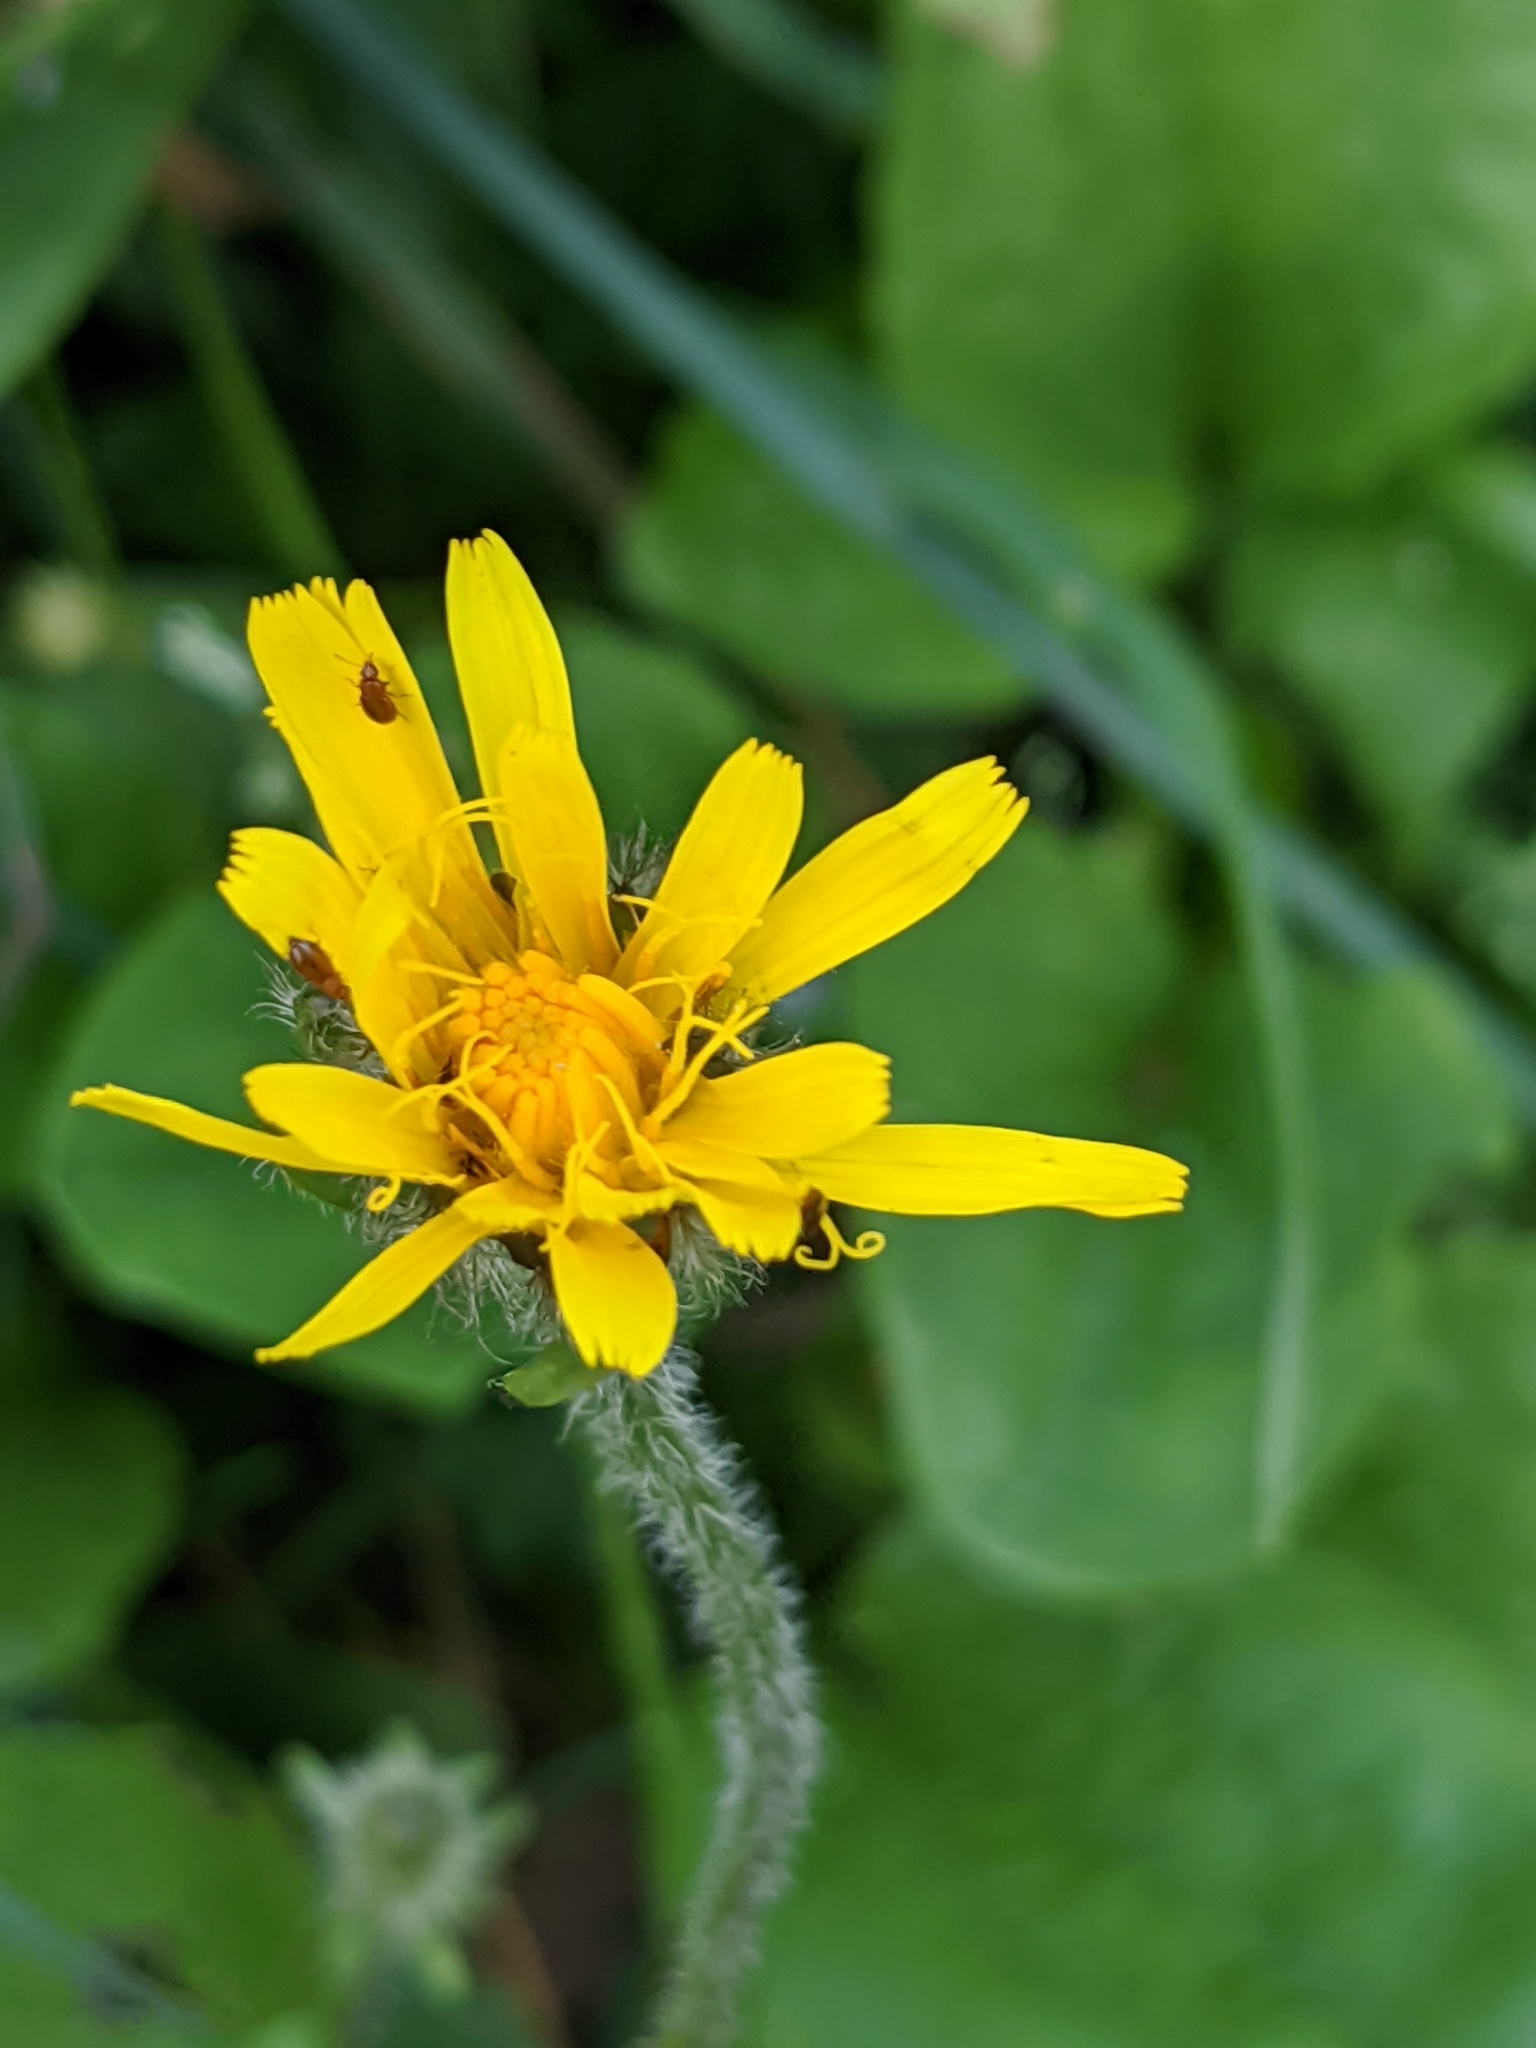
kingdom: Plantae
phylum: Tracheophyta
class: Magnoliopsida
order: Asterales
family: Asteraceae
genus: Crepis
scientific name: Crepis pyrenaica
